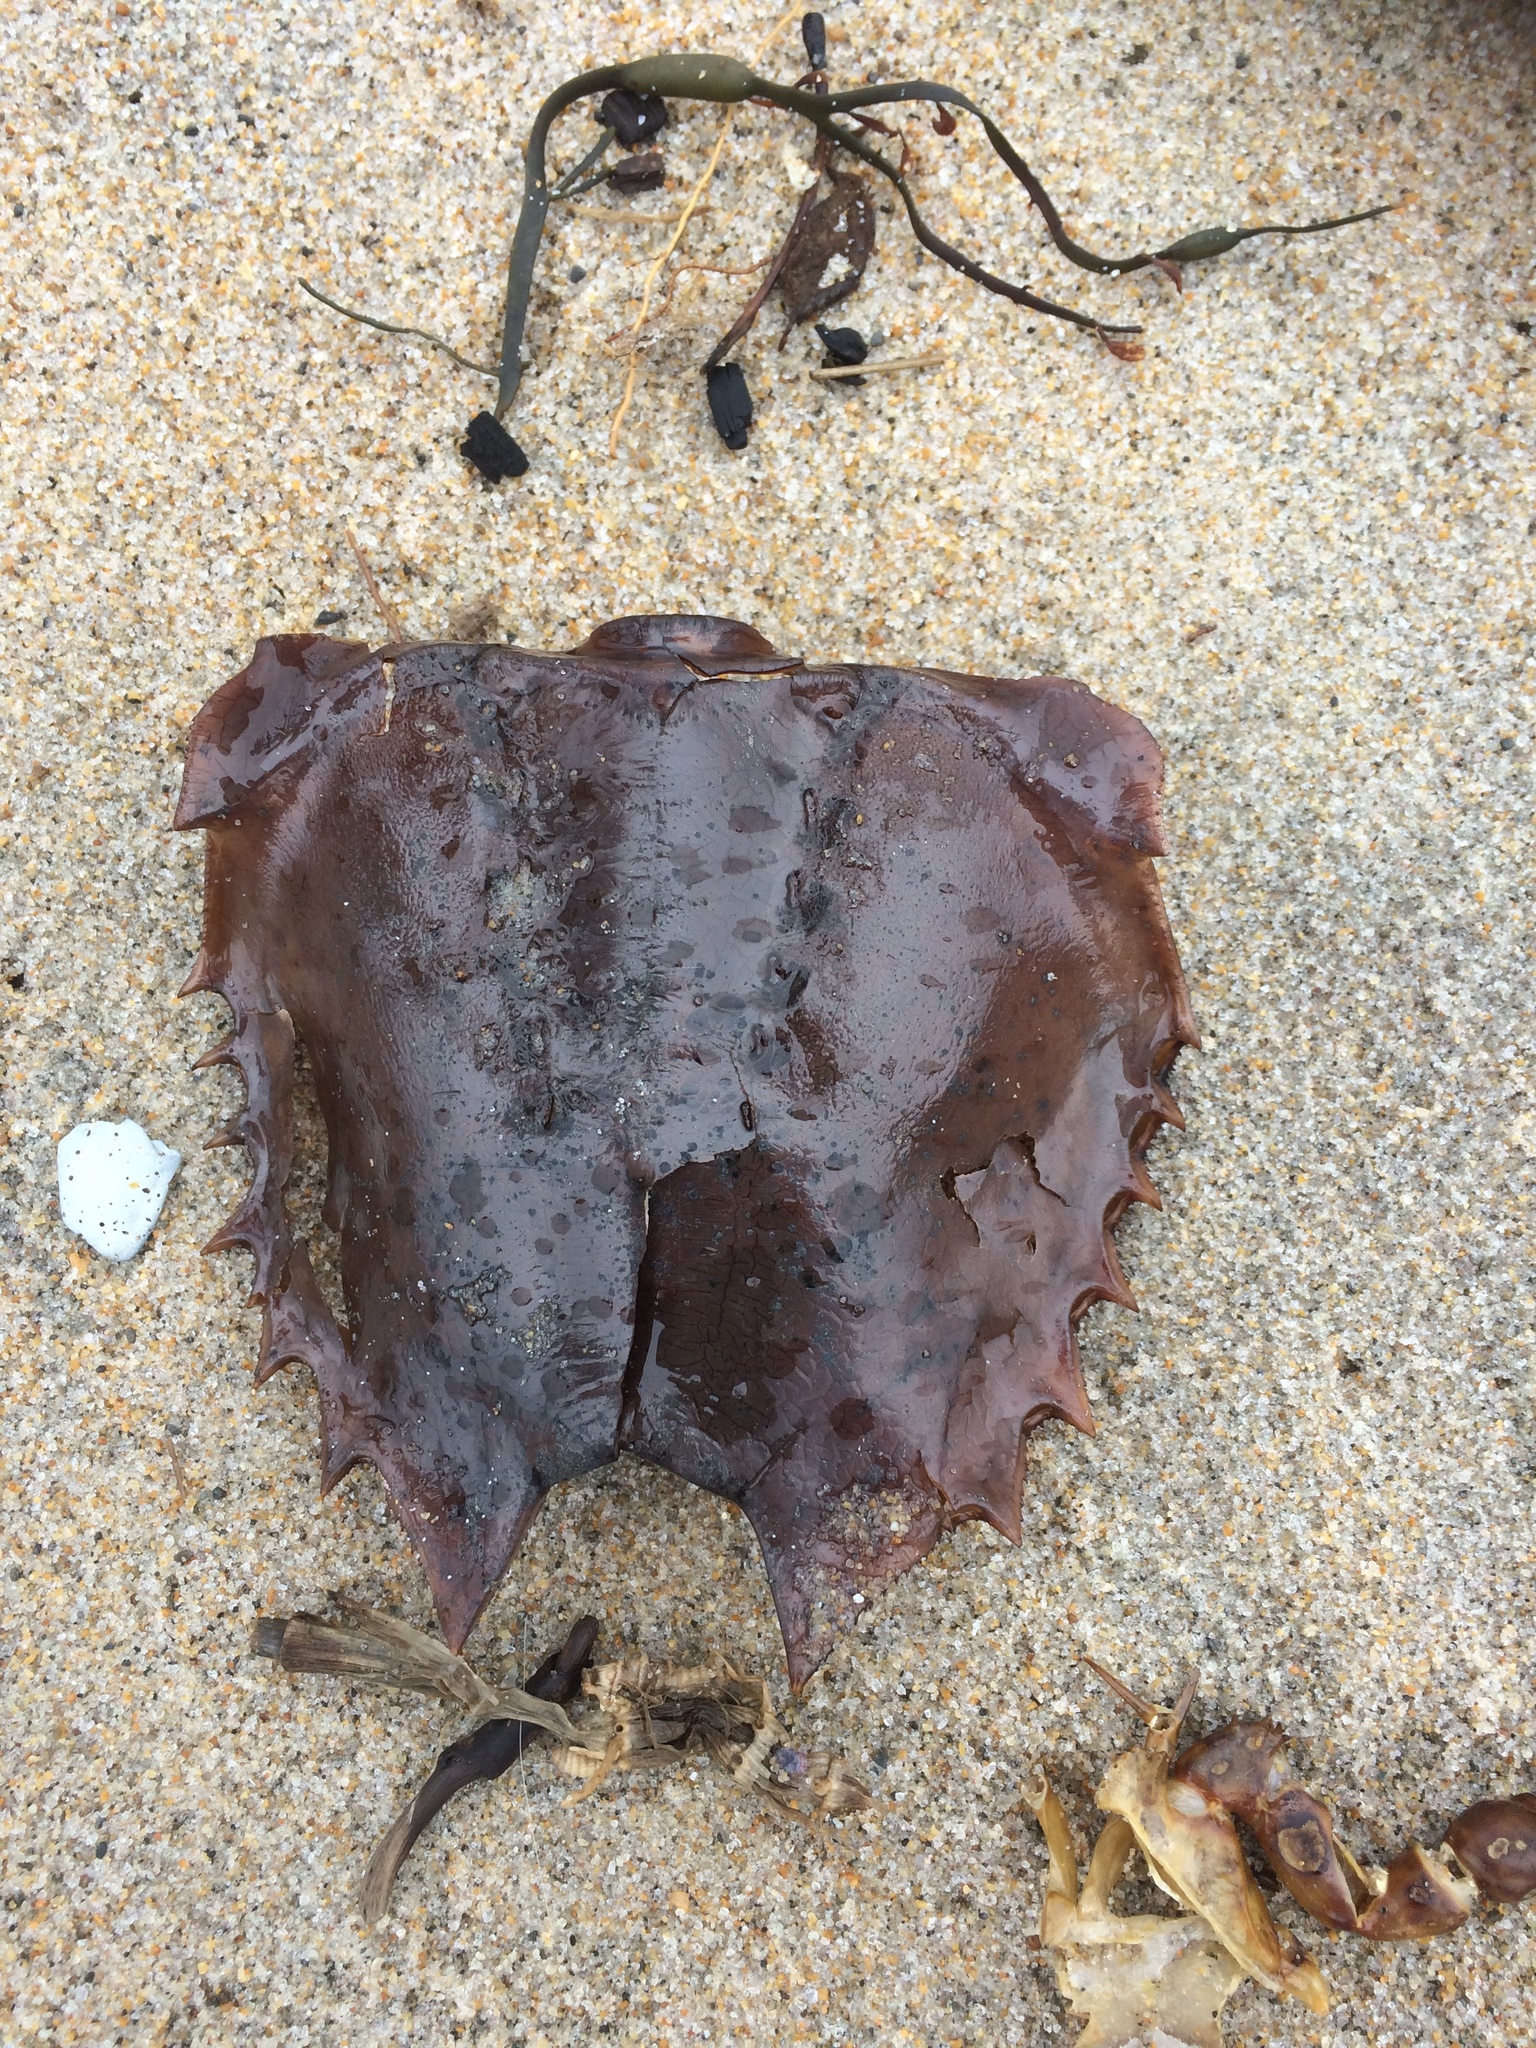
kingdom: Animalia
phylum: Arthropoda
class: Merostomata
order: Xiphosurida
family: Limulidae
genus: Limulus
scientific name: Limulus polyphemus
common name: Horseshoe crab
